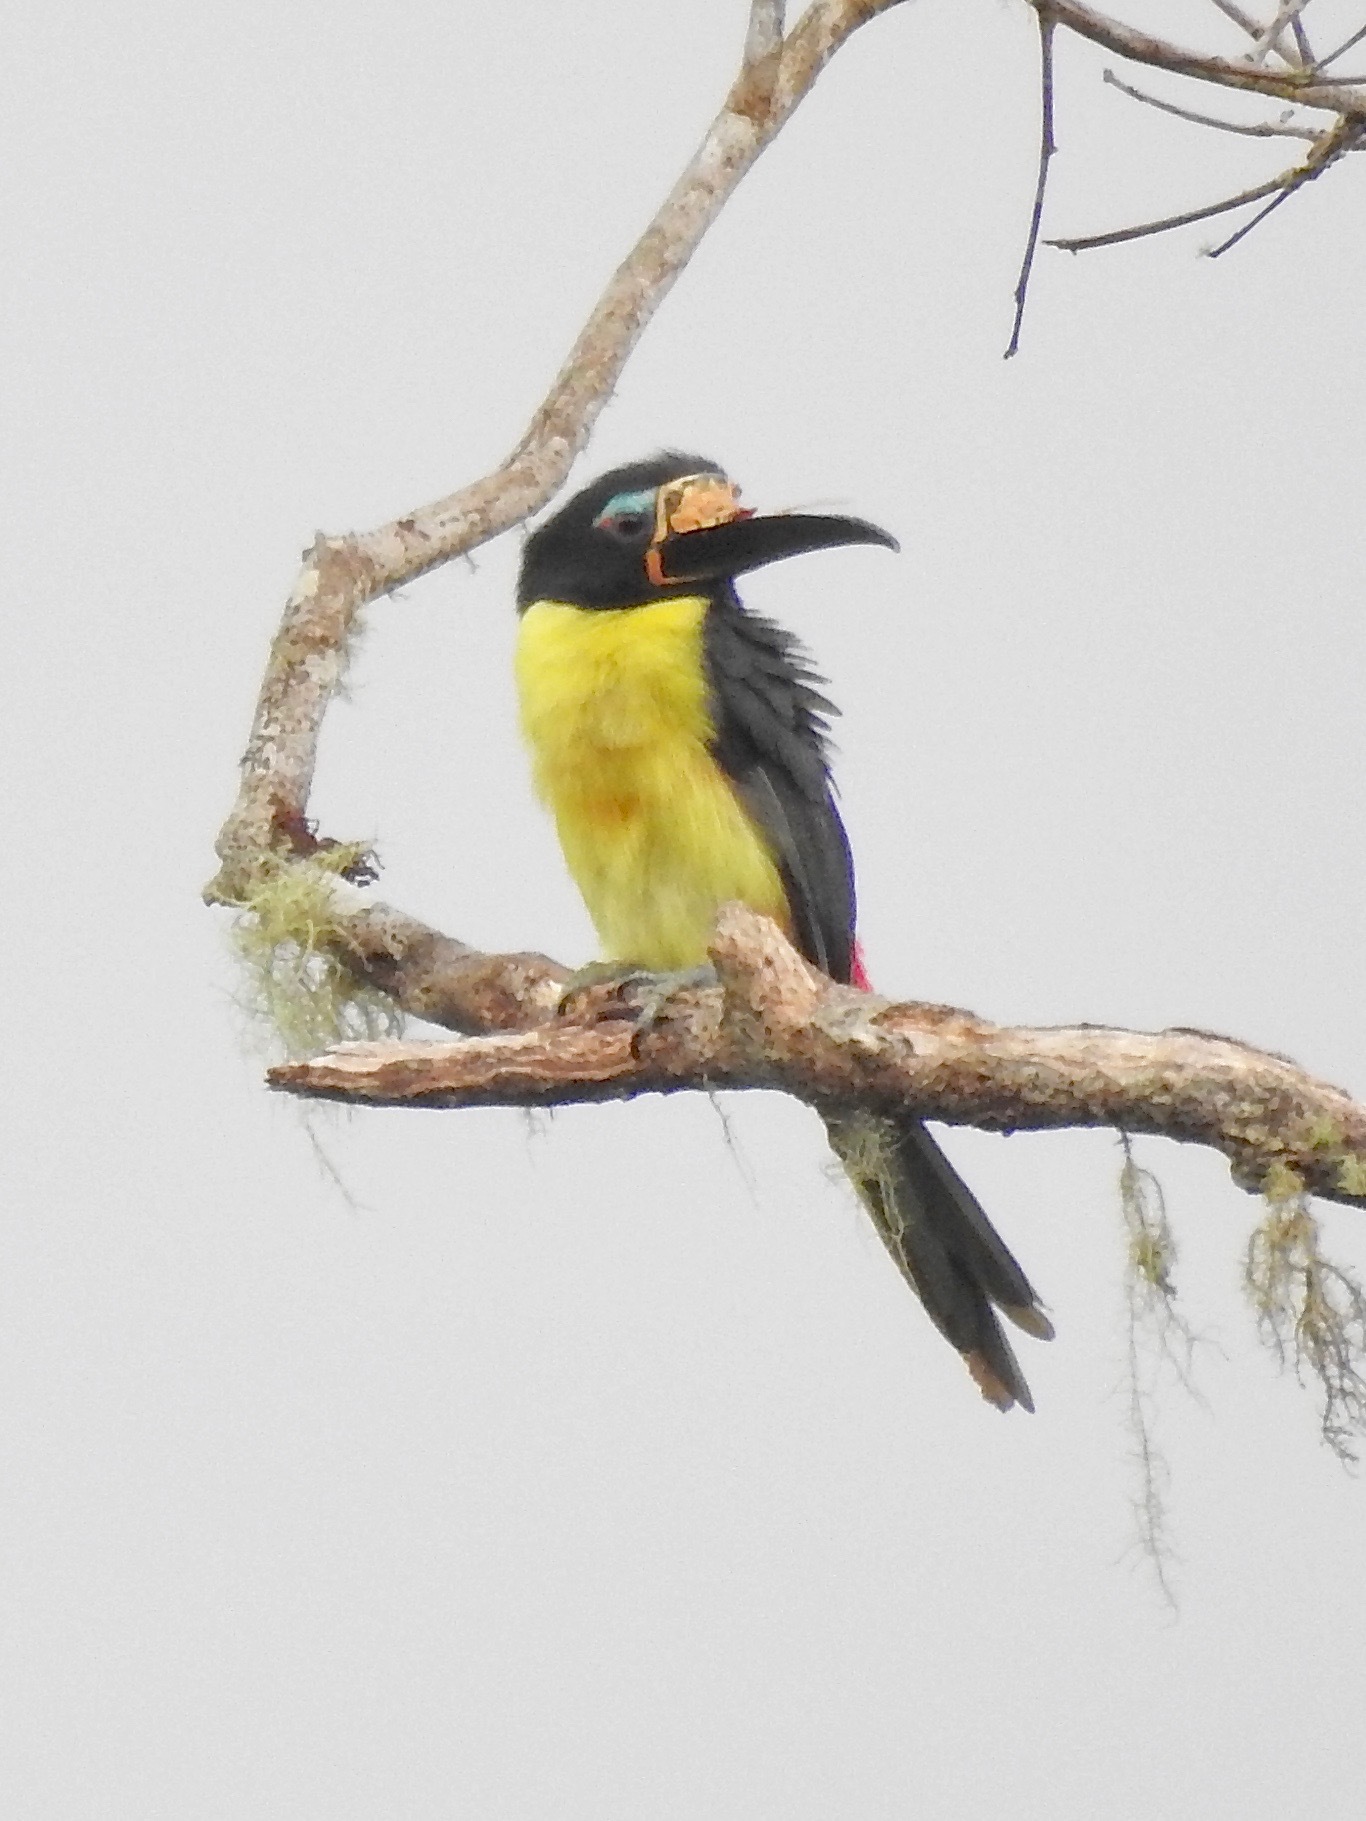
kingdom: Animalia
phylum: Chordata
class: Aves
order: Piciformes
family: Ramphastidae
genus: Pteroglossus
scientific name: Pteroglossus inscriptus
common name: Lettered aracari
